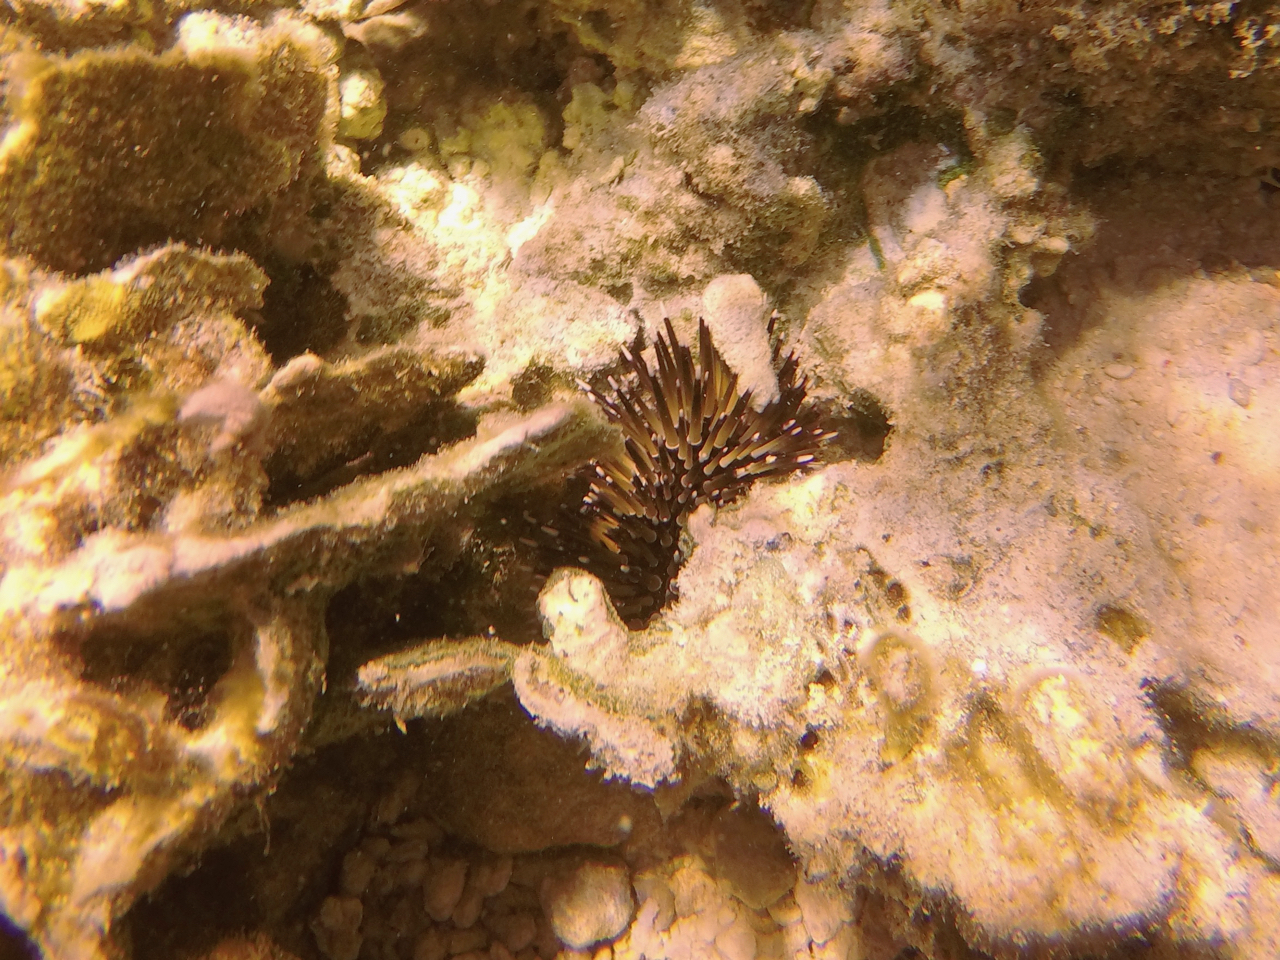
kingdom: Animalia
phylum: Echinodermata
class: Echinoidea
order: Camarodonta
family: Echinometridae
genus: Echinometra
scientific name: Echinometra mathaei
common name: Rock-boring urchin
